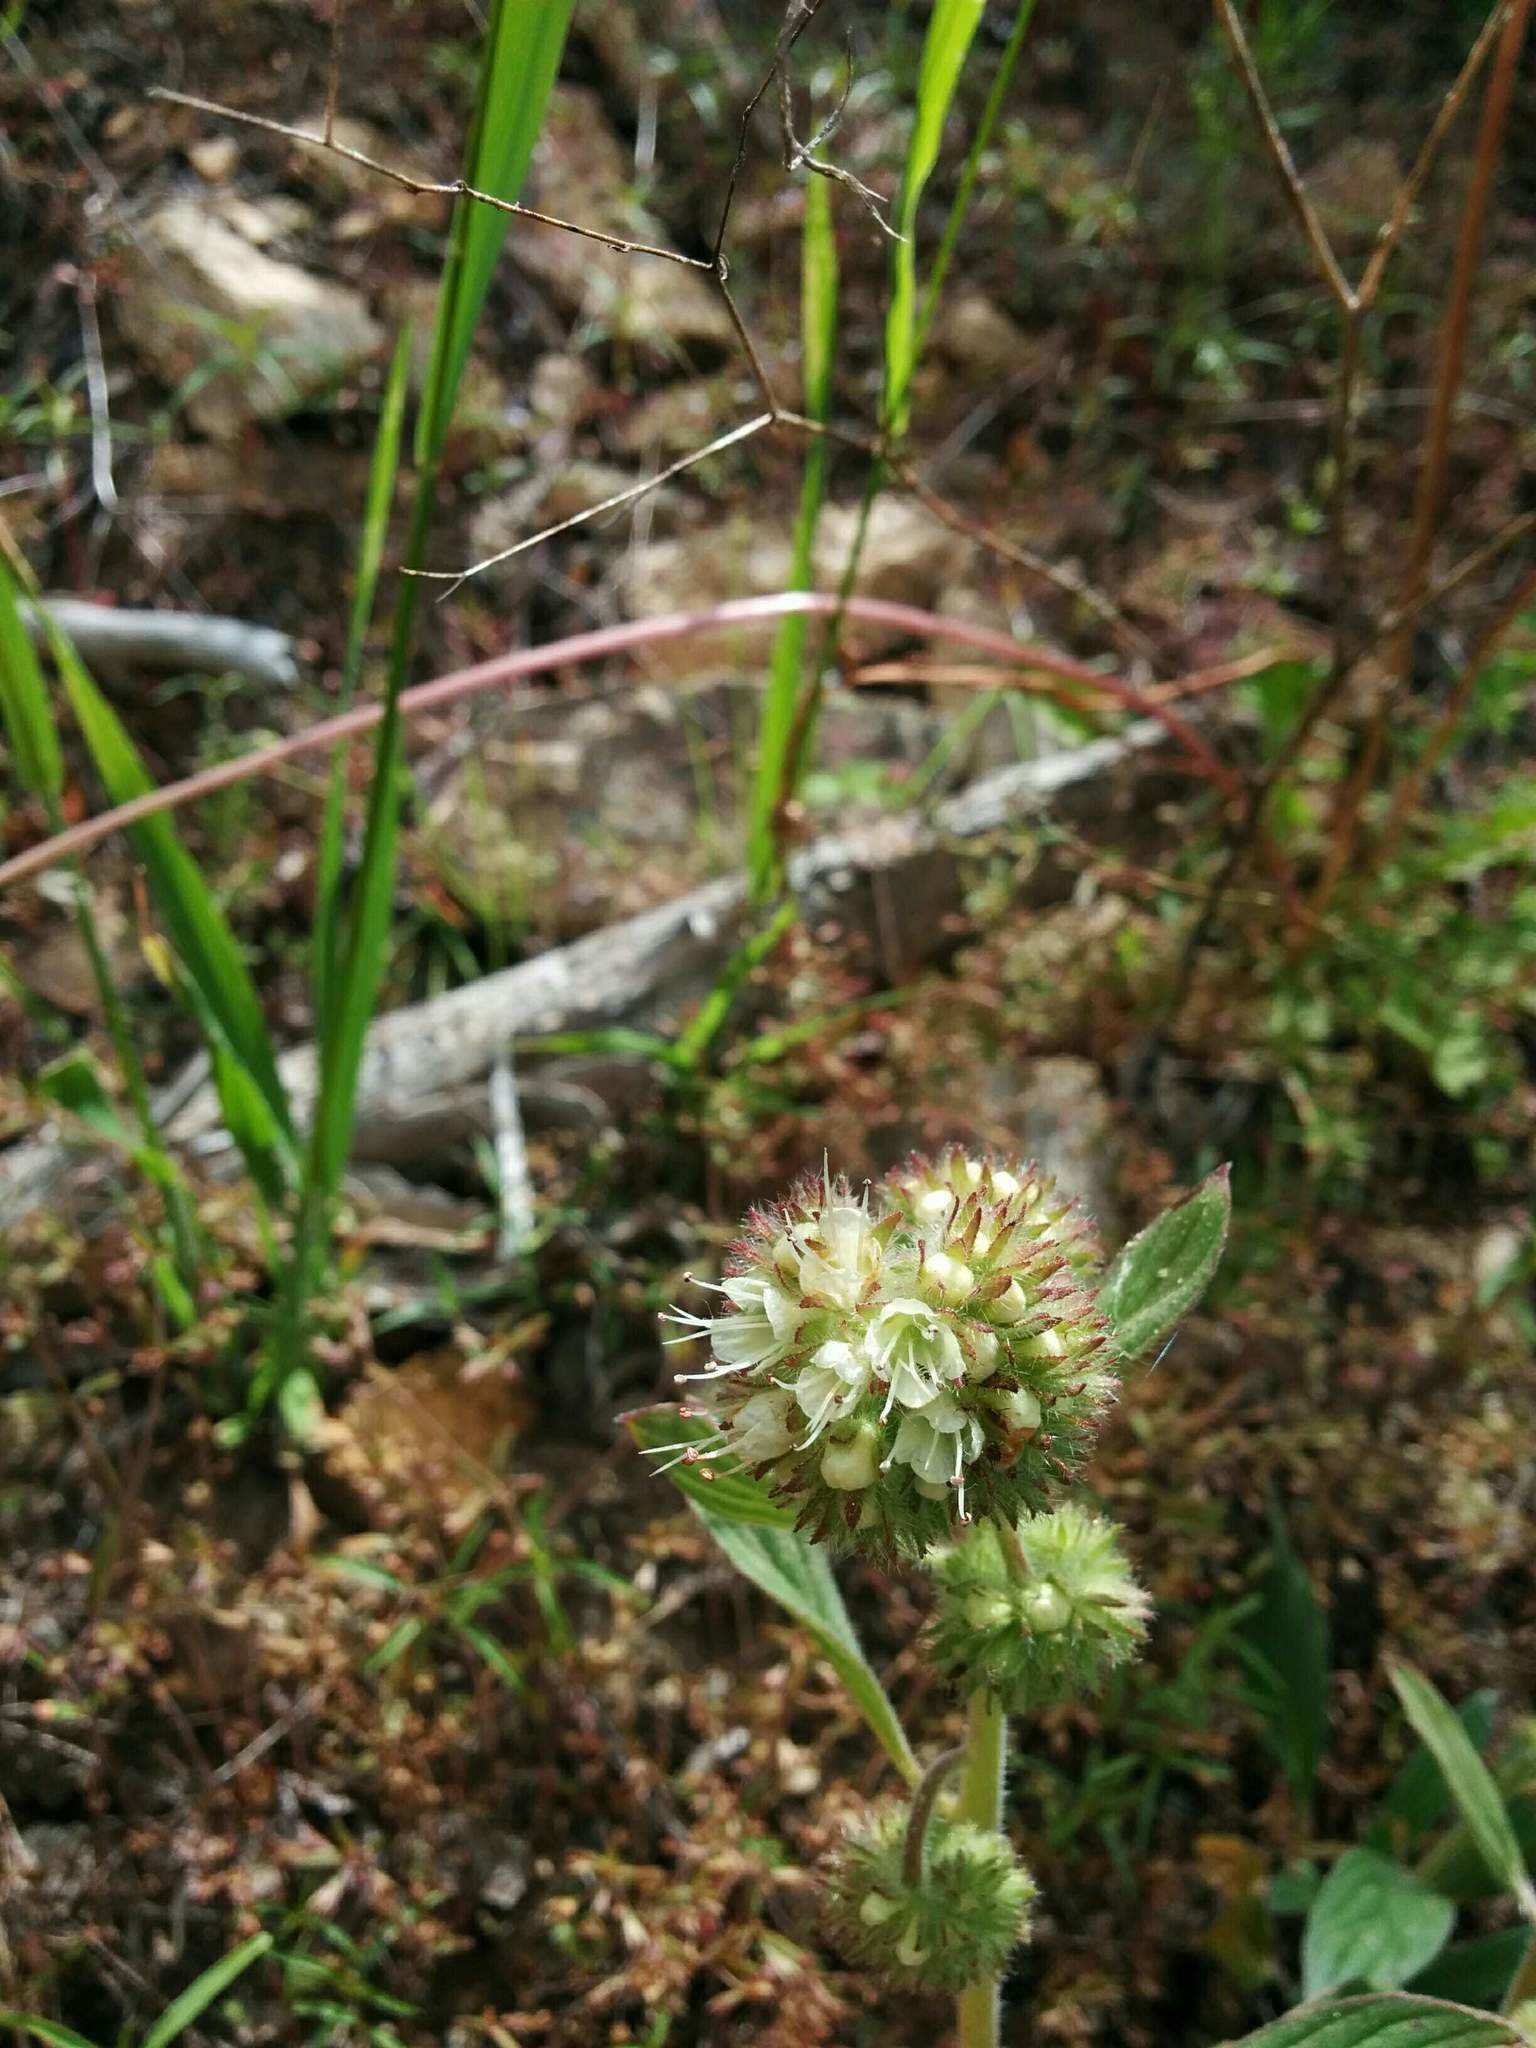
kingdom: Plantae
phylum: Tracheophyta
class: Magnoliopsida
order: Boraginales
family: Hydrophyllaceae
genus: Phacelia
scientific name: Phacelia hastata
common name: Silver-leaved phacelia
